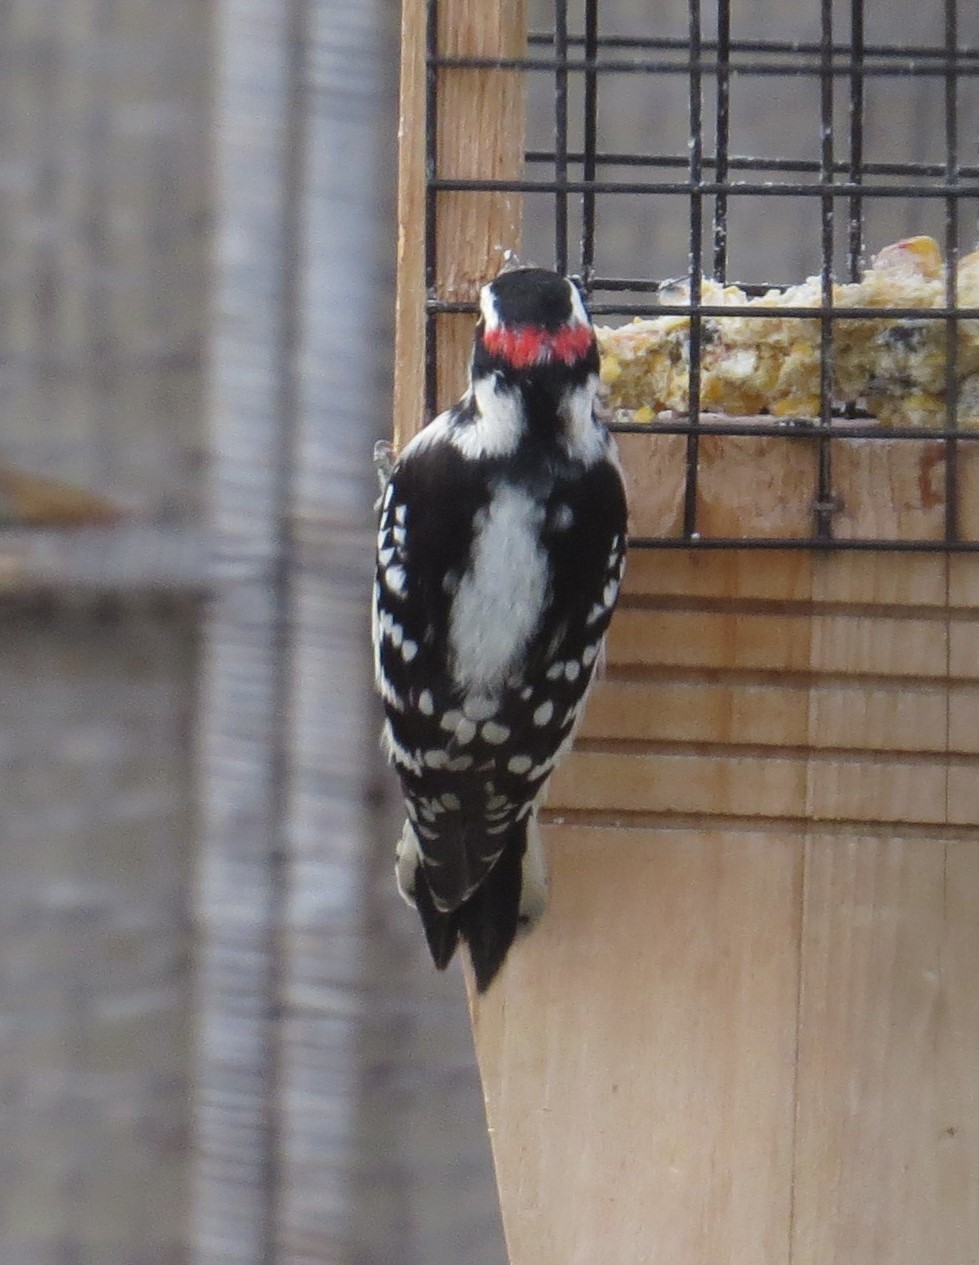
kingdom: Animalia
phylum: Chordata
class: Aves
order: Piciformes
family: Picidae
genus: Dryobates
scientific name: Dryobates pubescens
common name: Downy woodpecker
